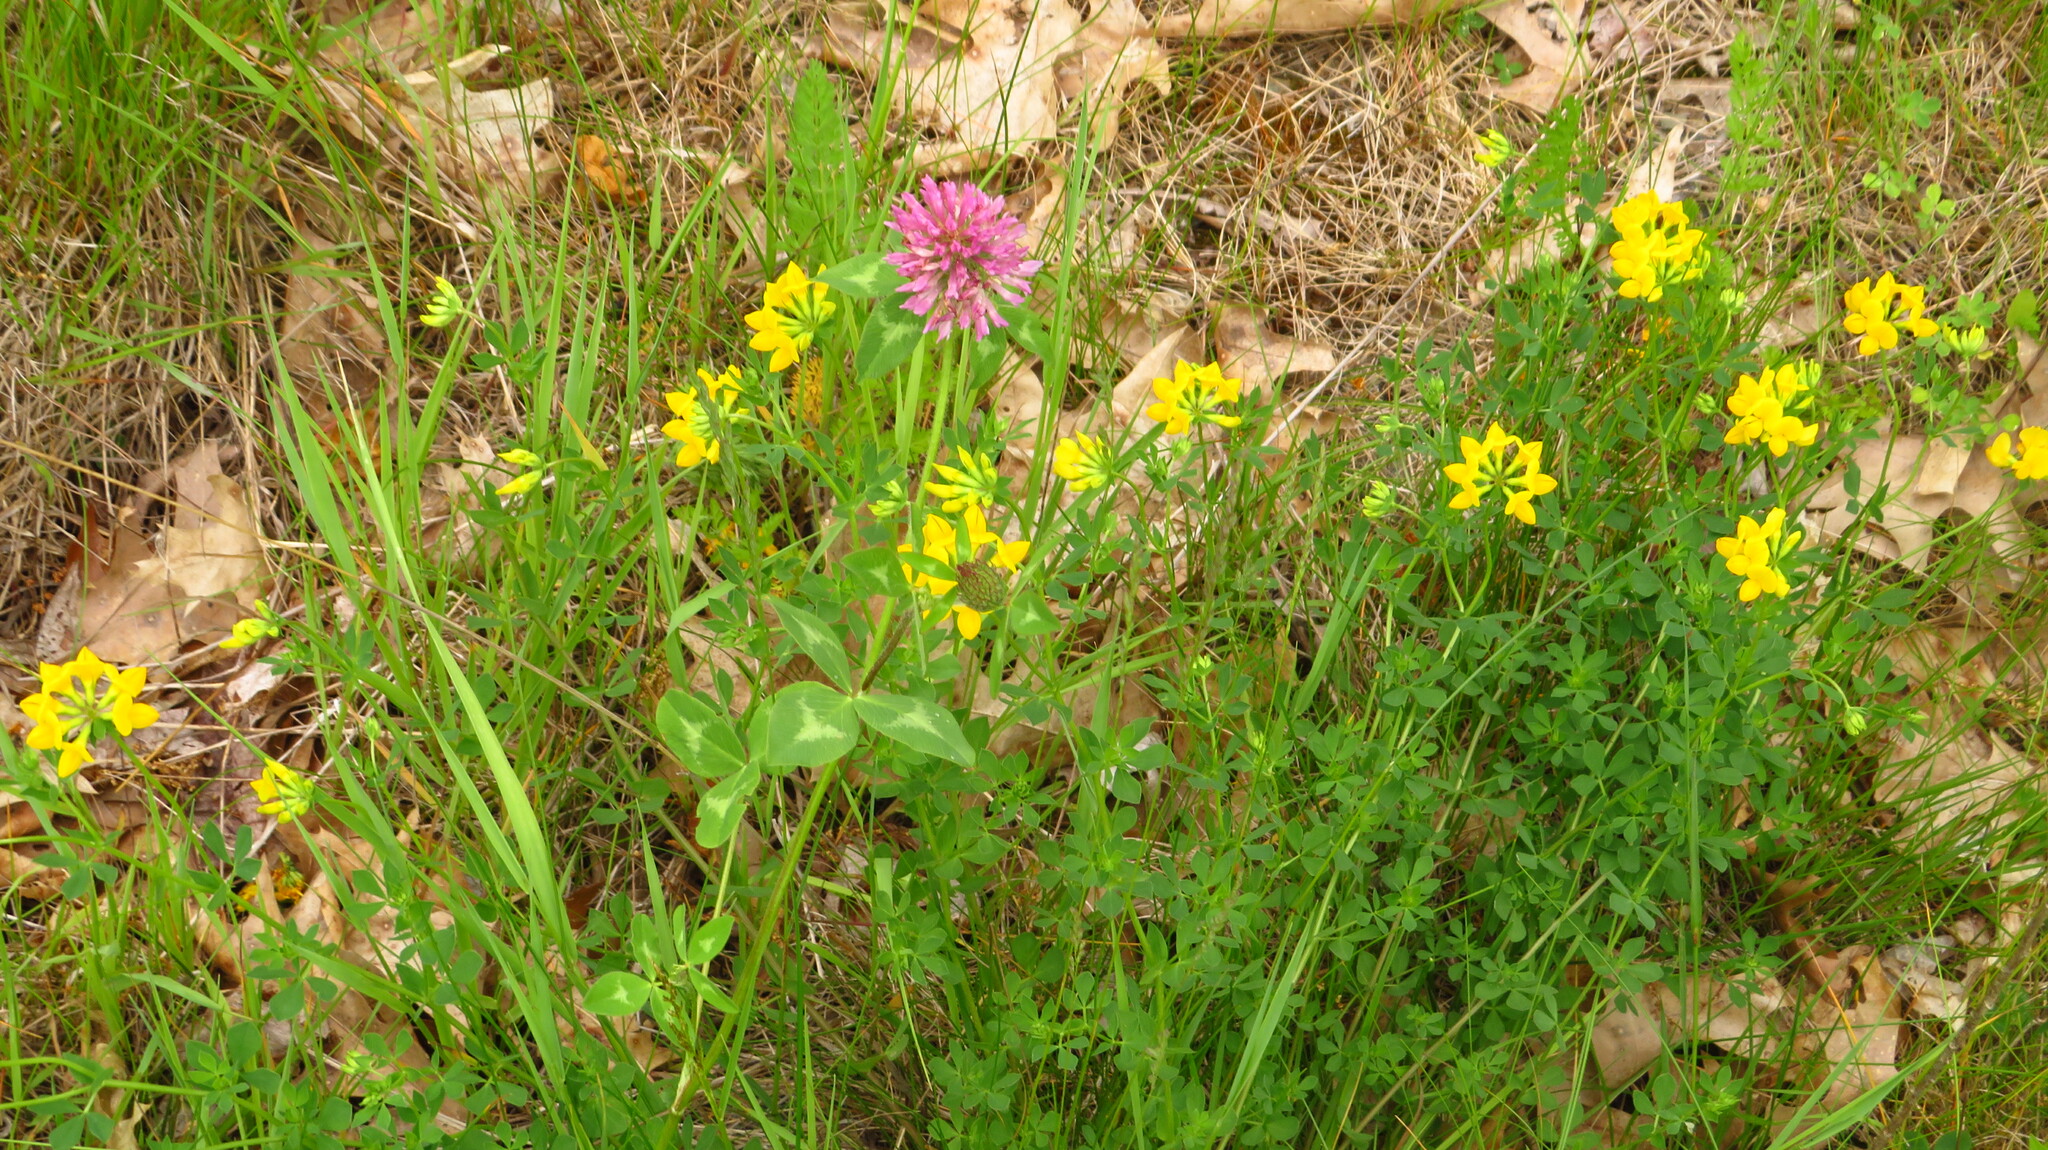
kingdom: Plantae
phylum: Tracheophyta
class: Magnoliopsida
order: Fabales
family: Fabaceae
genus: Lotus
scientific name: Lotus corniculatus
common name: Common bird's-foot-trefoil
